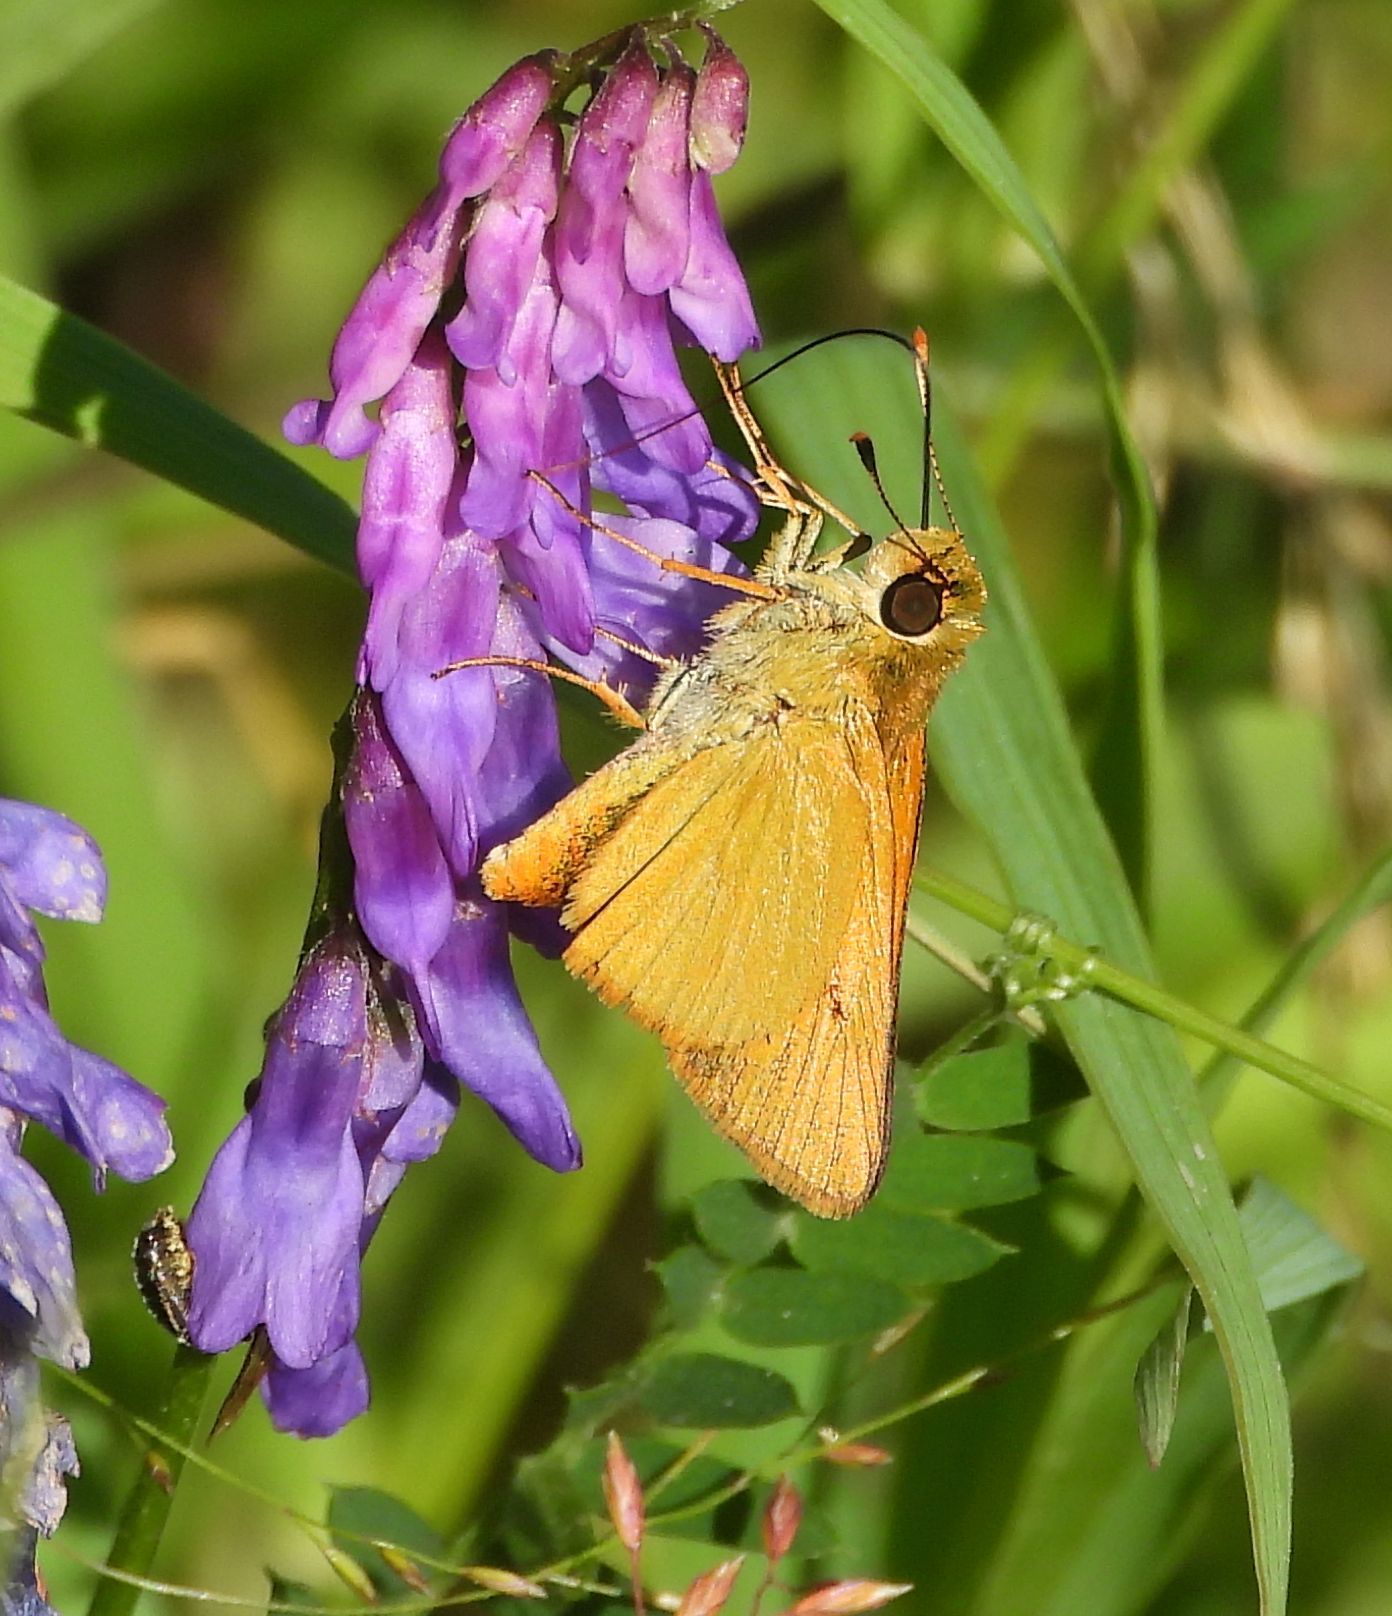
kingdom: Animalia
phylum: Arthropoda
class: Insecta
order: Lepidoptera
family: Hesperiidae
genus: Atrytone
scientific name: Atrytone delaware
